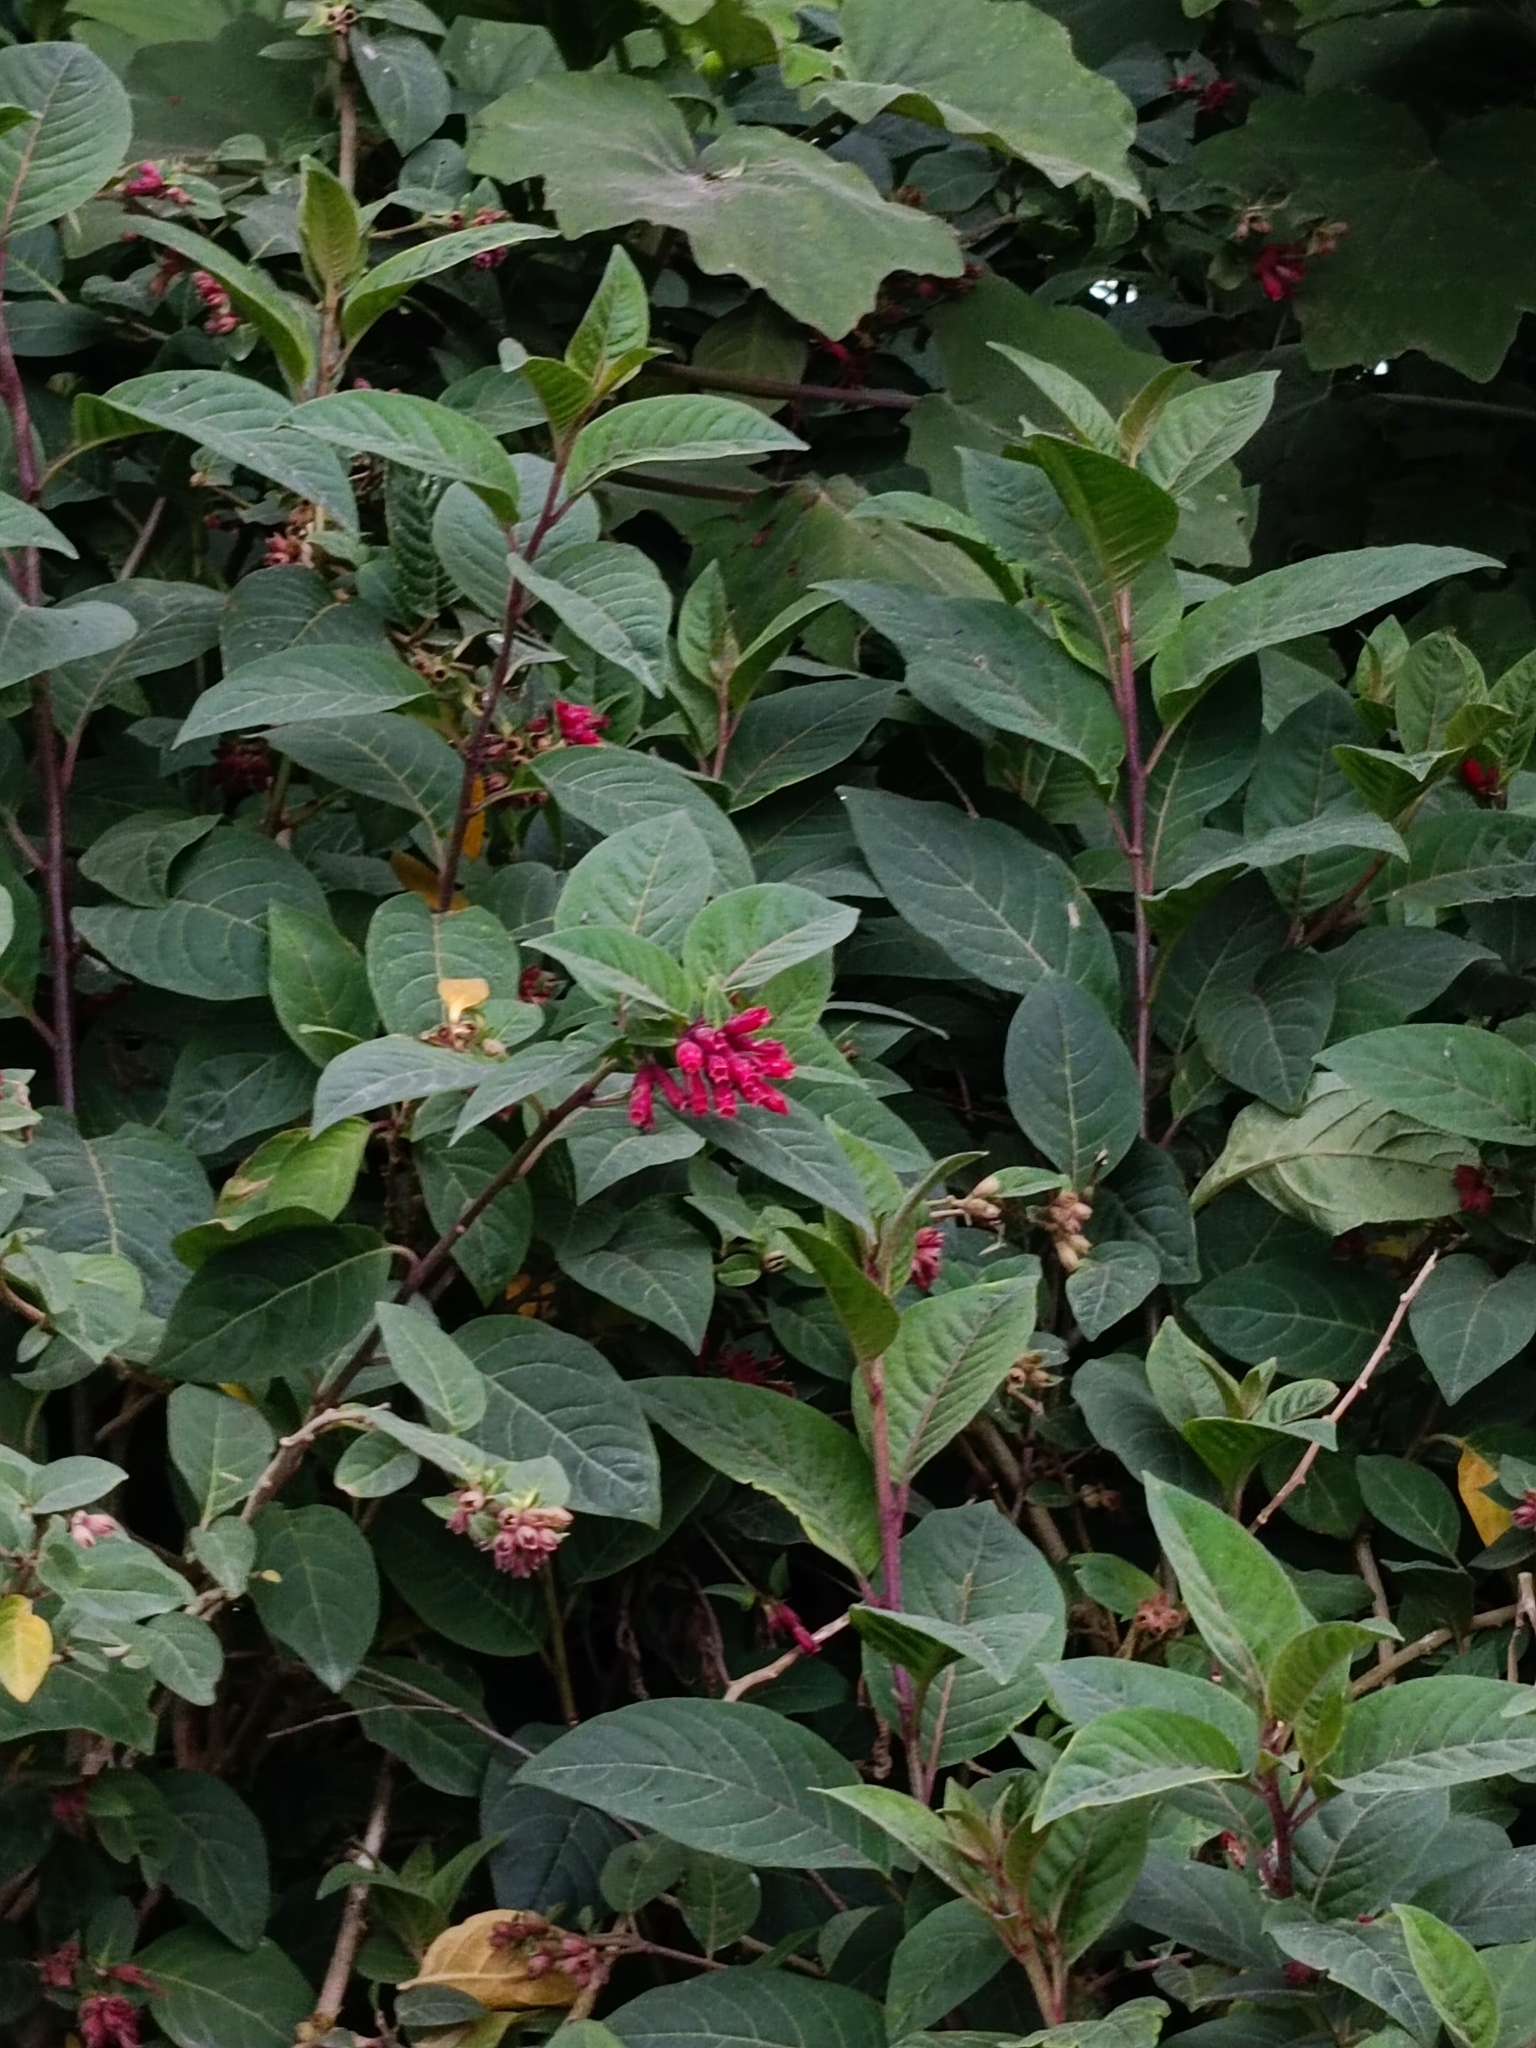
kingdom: Plantae
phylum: Tracheophyta
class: Magnoliopsida
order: Solanales
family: Solanaceae
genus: Cestrum
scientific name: Cestrum elegans
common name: Crimson cestrum
